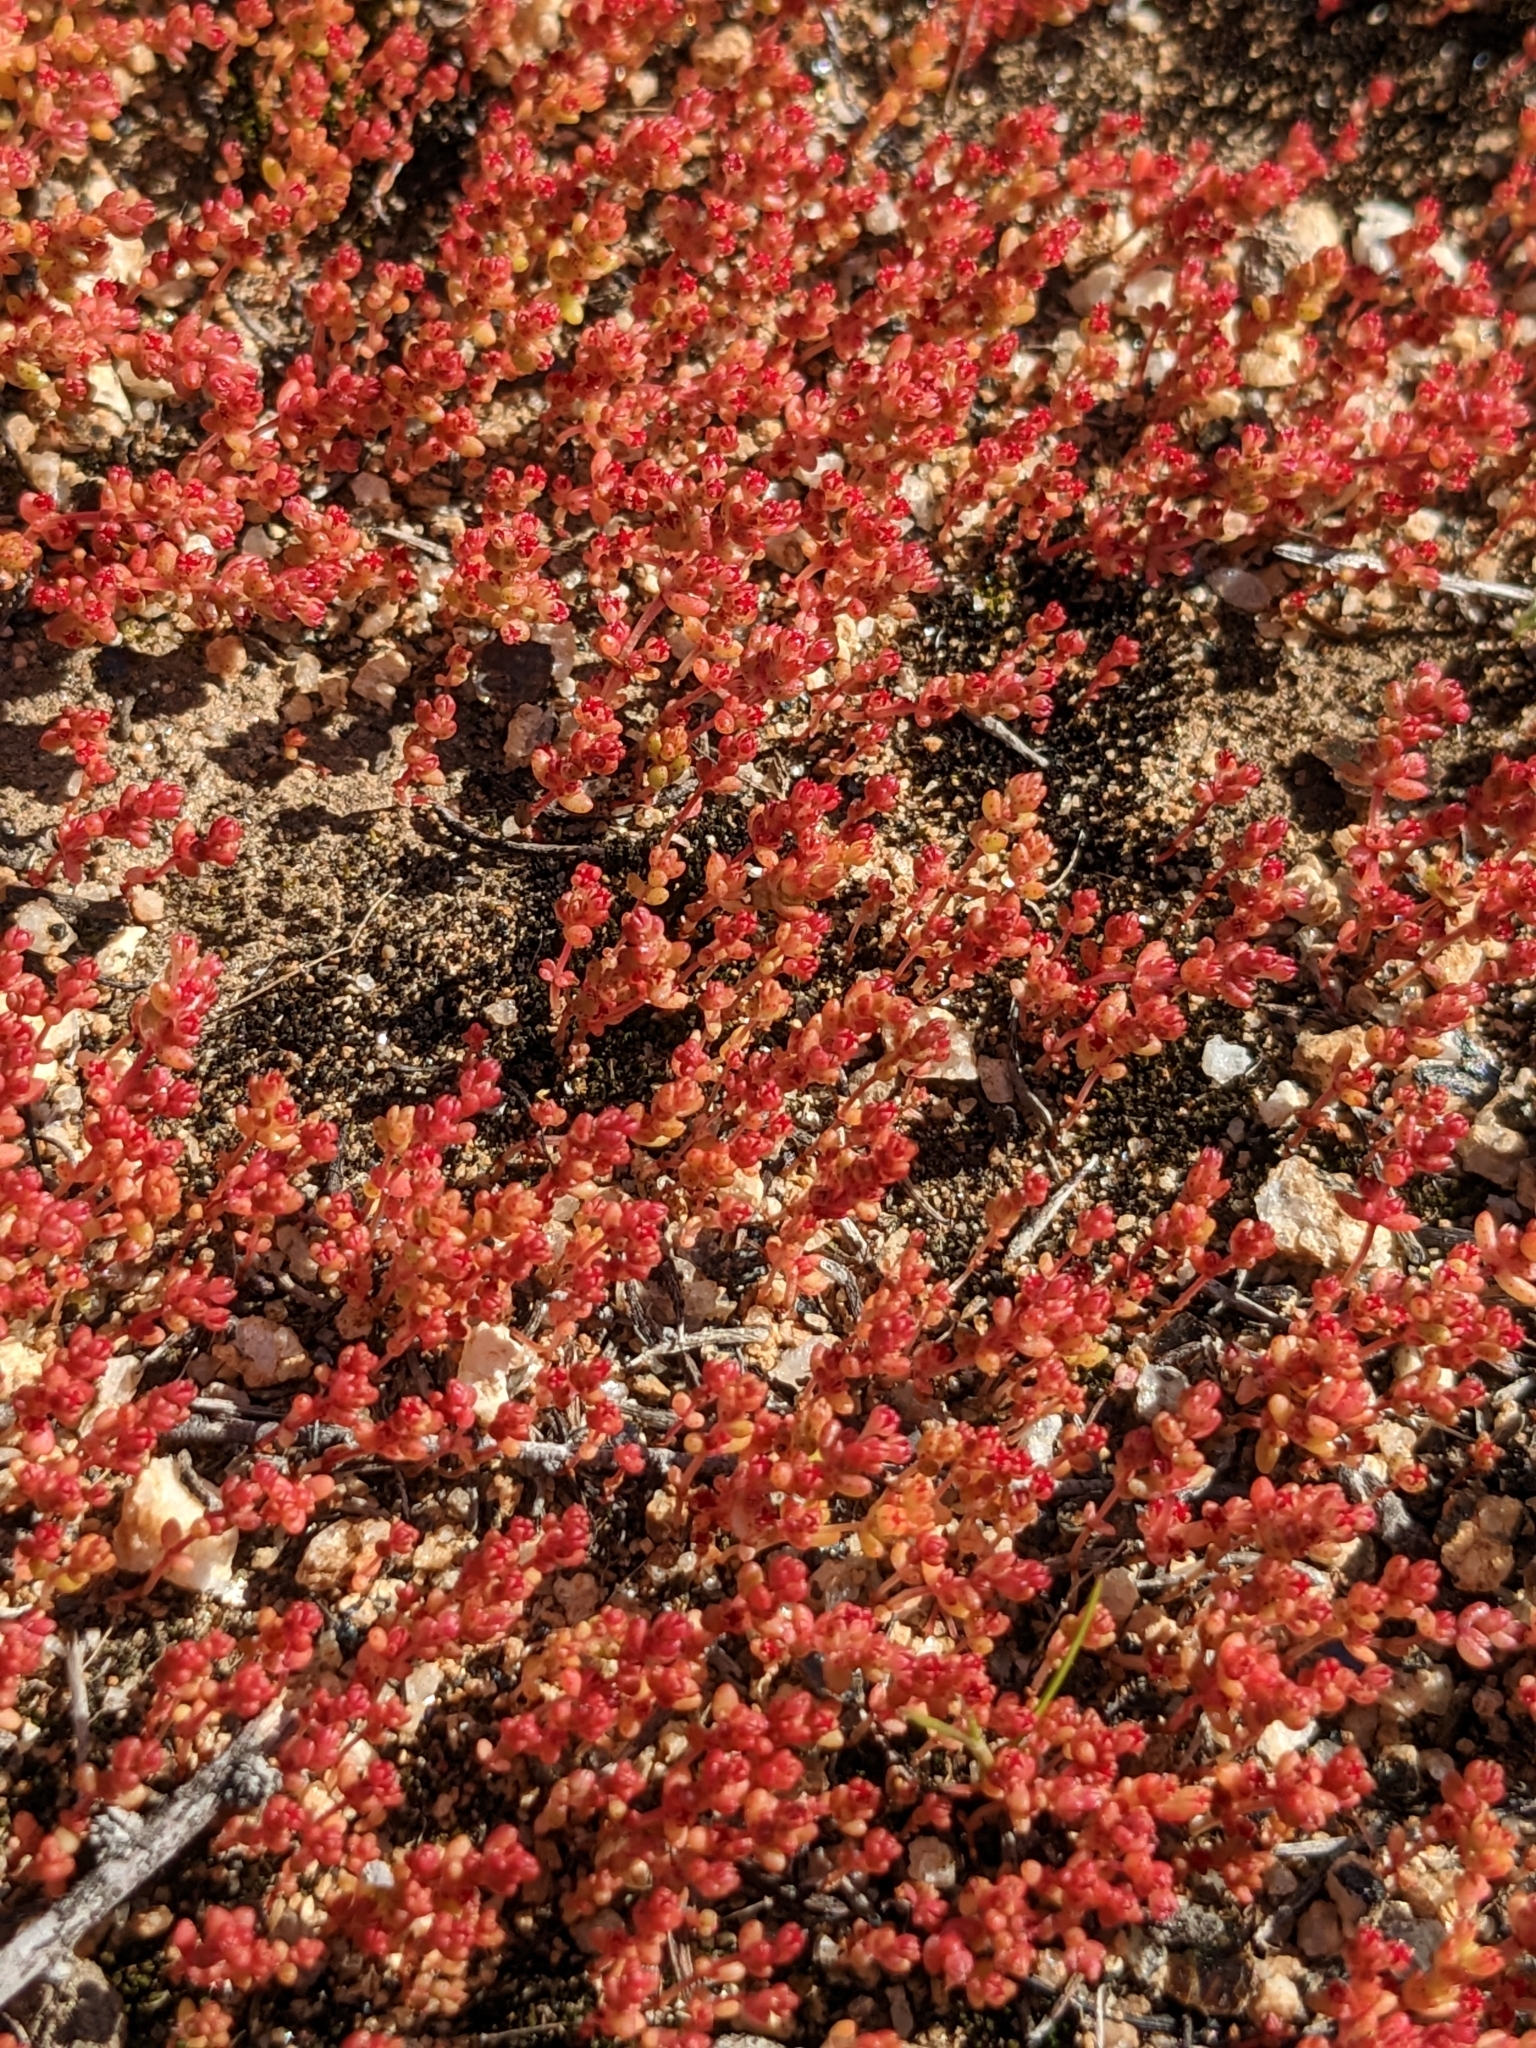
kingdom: Plantae
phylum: Tracheophyta
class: Magnoliopsida
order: Saxifragales
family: Crassulaceae
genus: Crassula
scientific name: Crassula connata
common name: Erect pygmyweed
